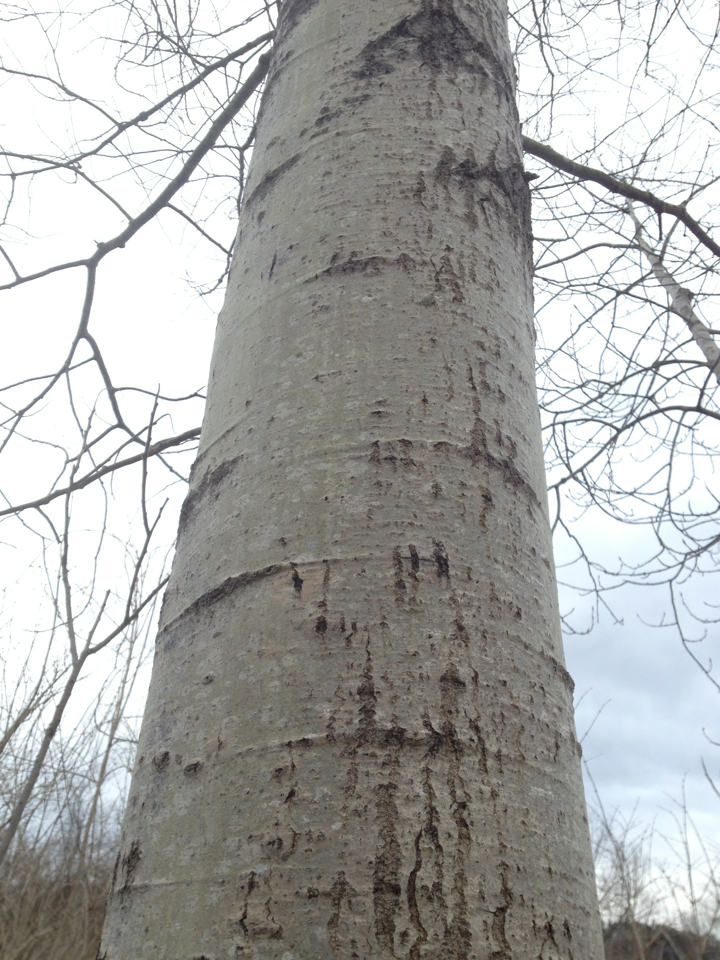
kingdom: Plantae
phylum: Tracheophyta
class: Magnoliopsida
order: Malpighiales
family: Salicaceae
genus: Populus
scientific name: Populus tremuloides
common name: Quaking aspen
